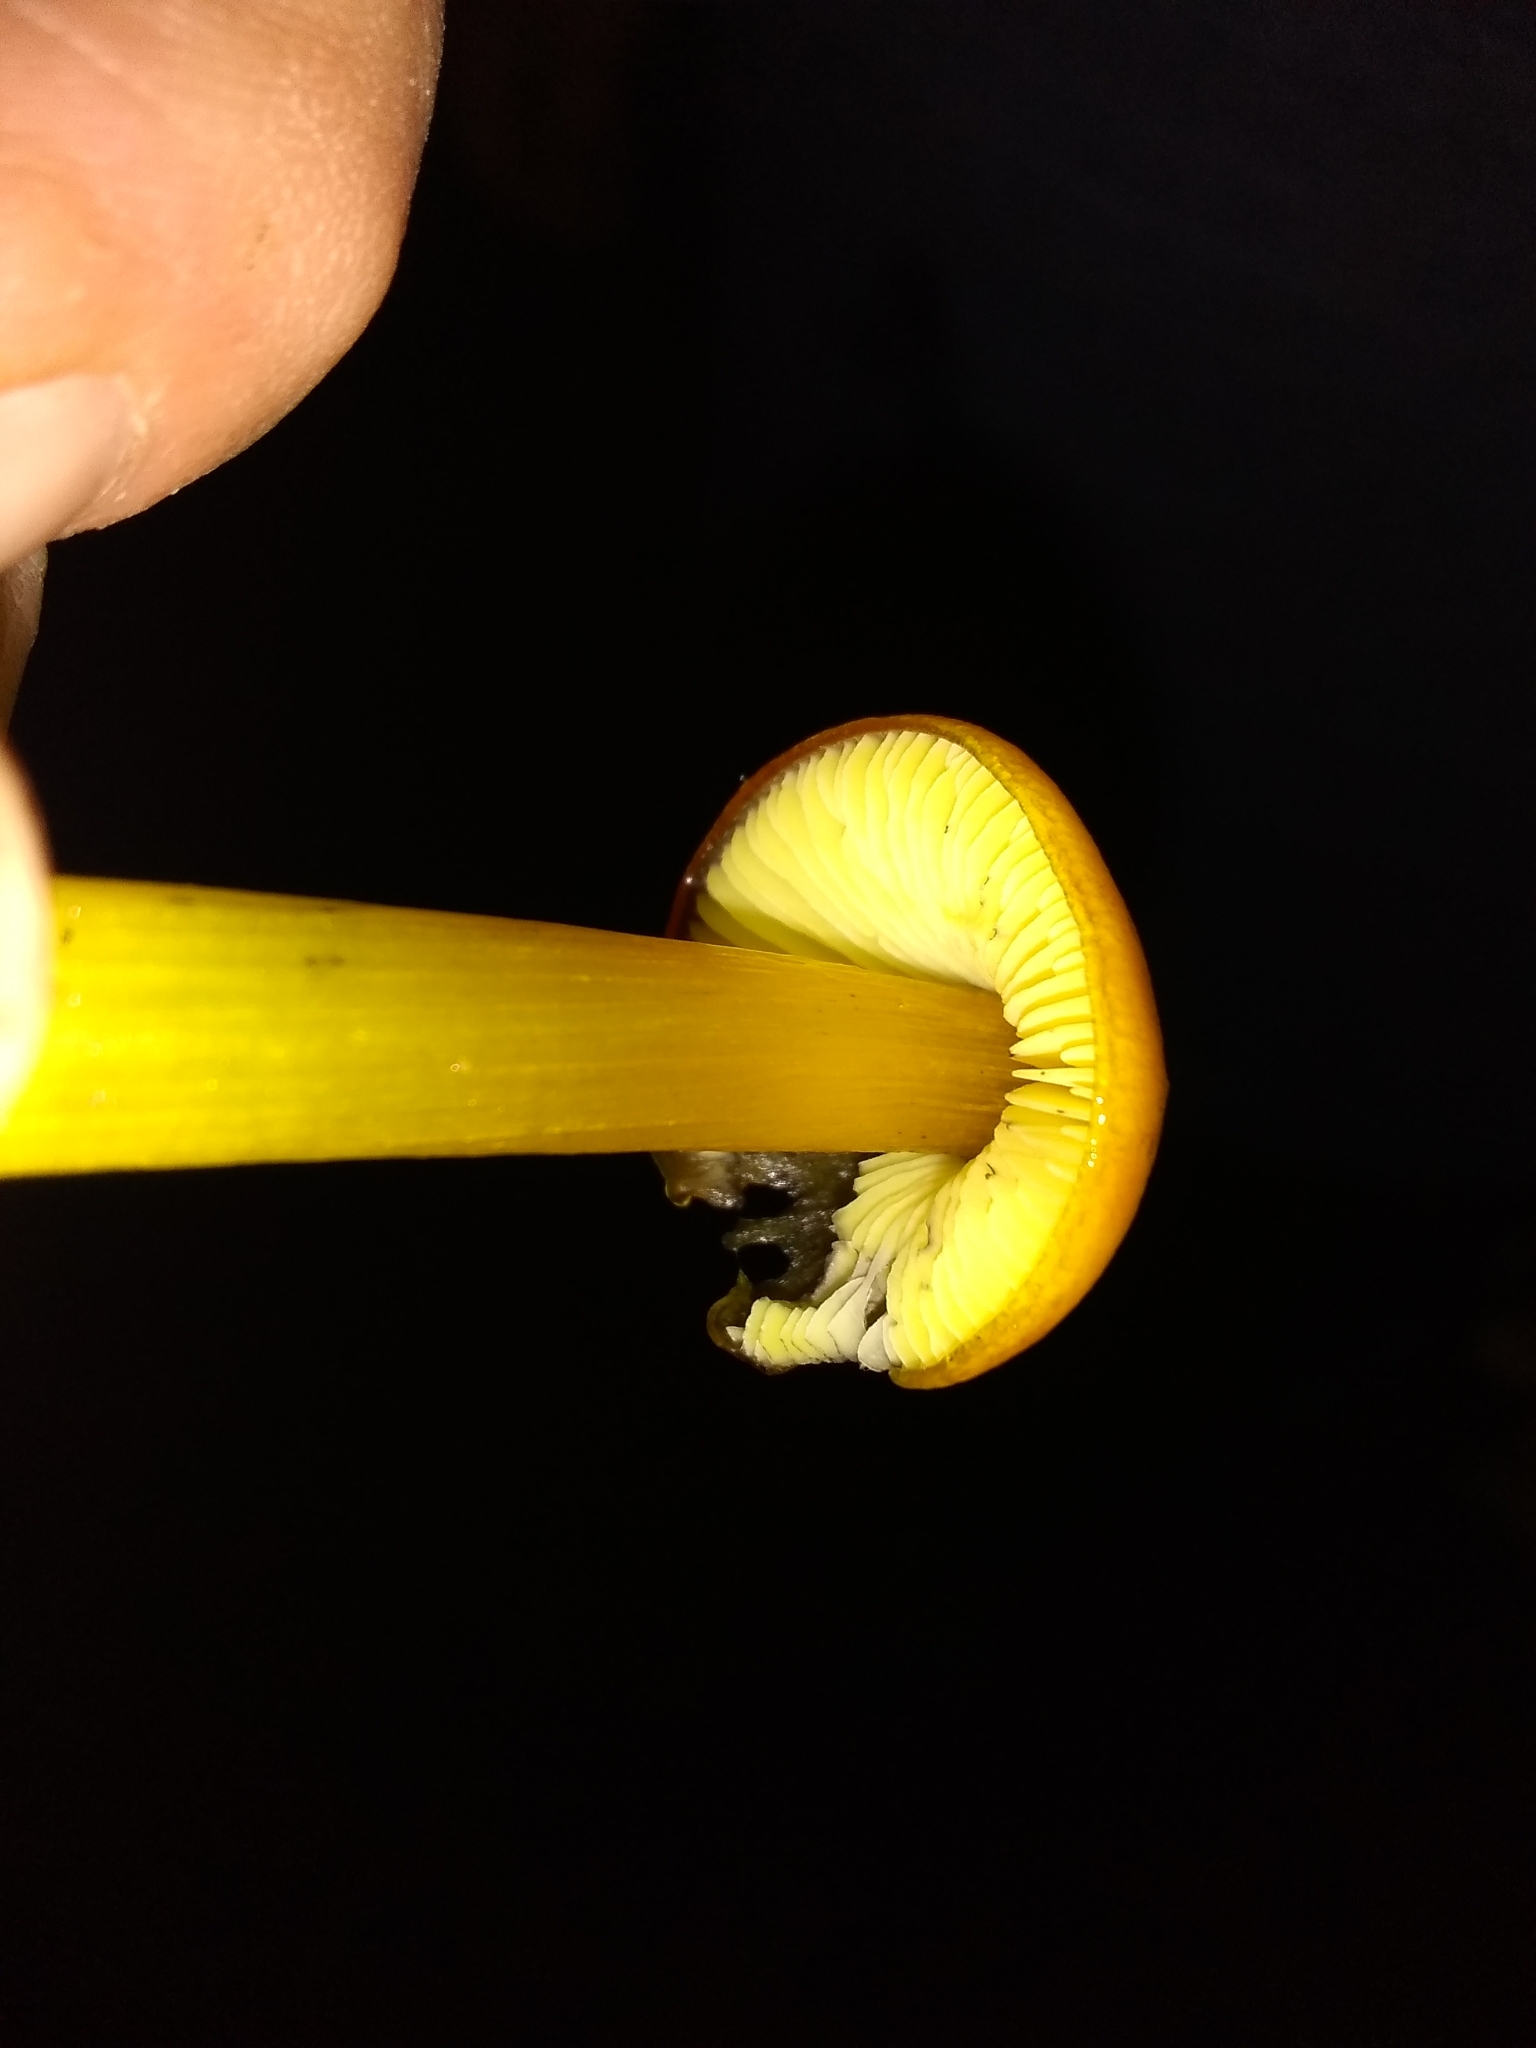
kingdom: Fungi
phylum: Basidiomycota
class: Agaricomycetes
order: Agaricales
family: Hygrophoraceae
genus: Hygrocybe
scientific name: Hygrocybe singeri
